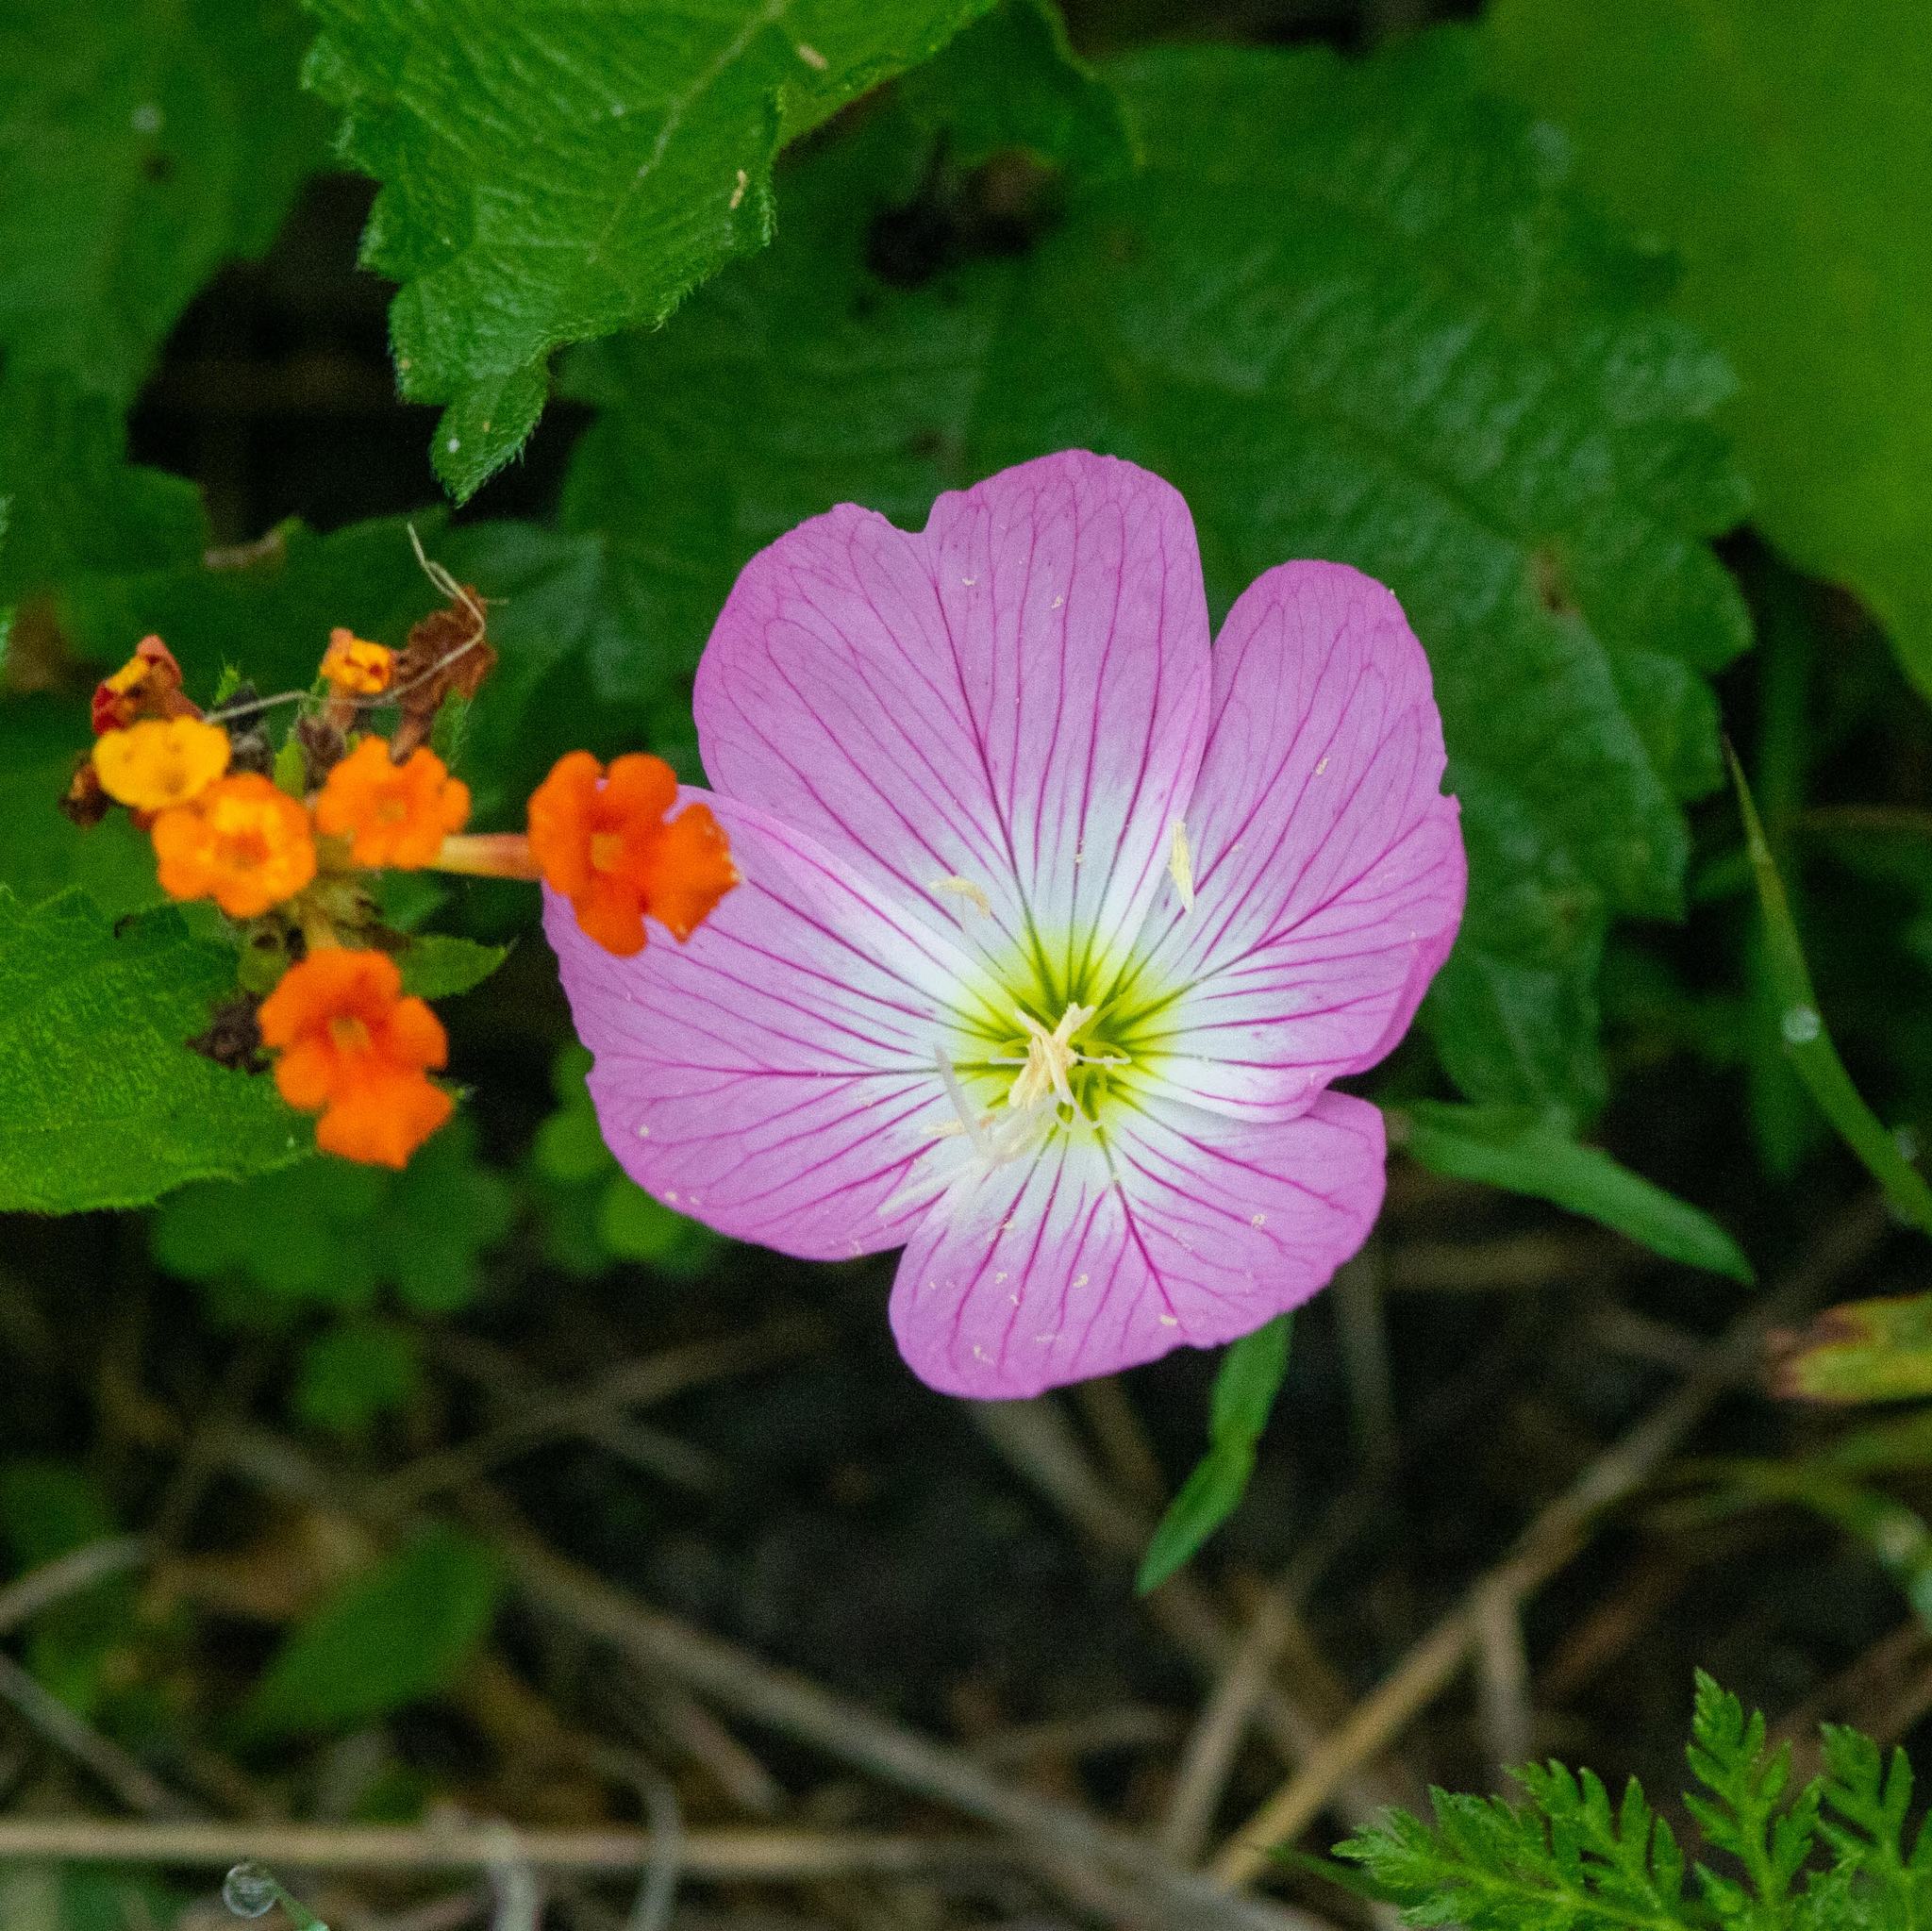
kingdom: Plantae
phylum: Tracheophyta
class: Magnoliopsida
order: Myrtales
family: Onagraceae
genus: Oenothera
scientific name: Oenothera speciosa
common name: White evening-primrose
